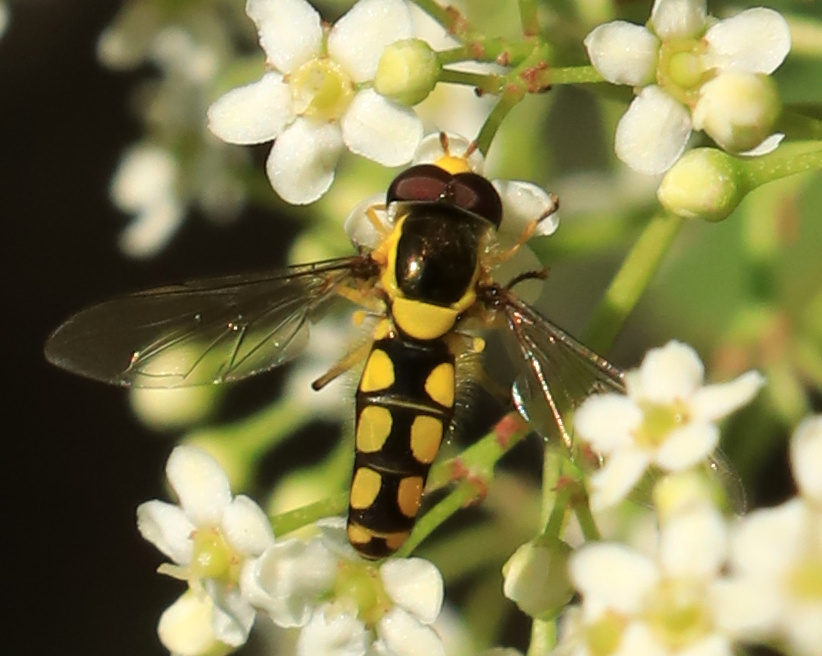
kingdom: Animalia
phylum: Arthropoda
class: Insecta
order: Diptera
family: Syrphidae
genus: Allograpta
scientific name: Allograpta calopa
